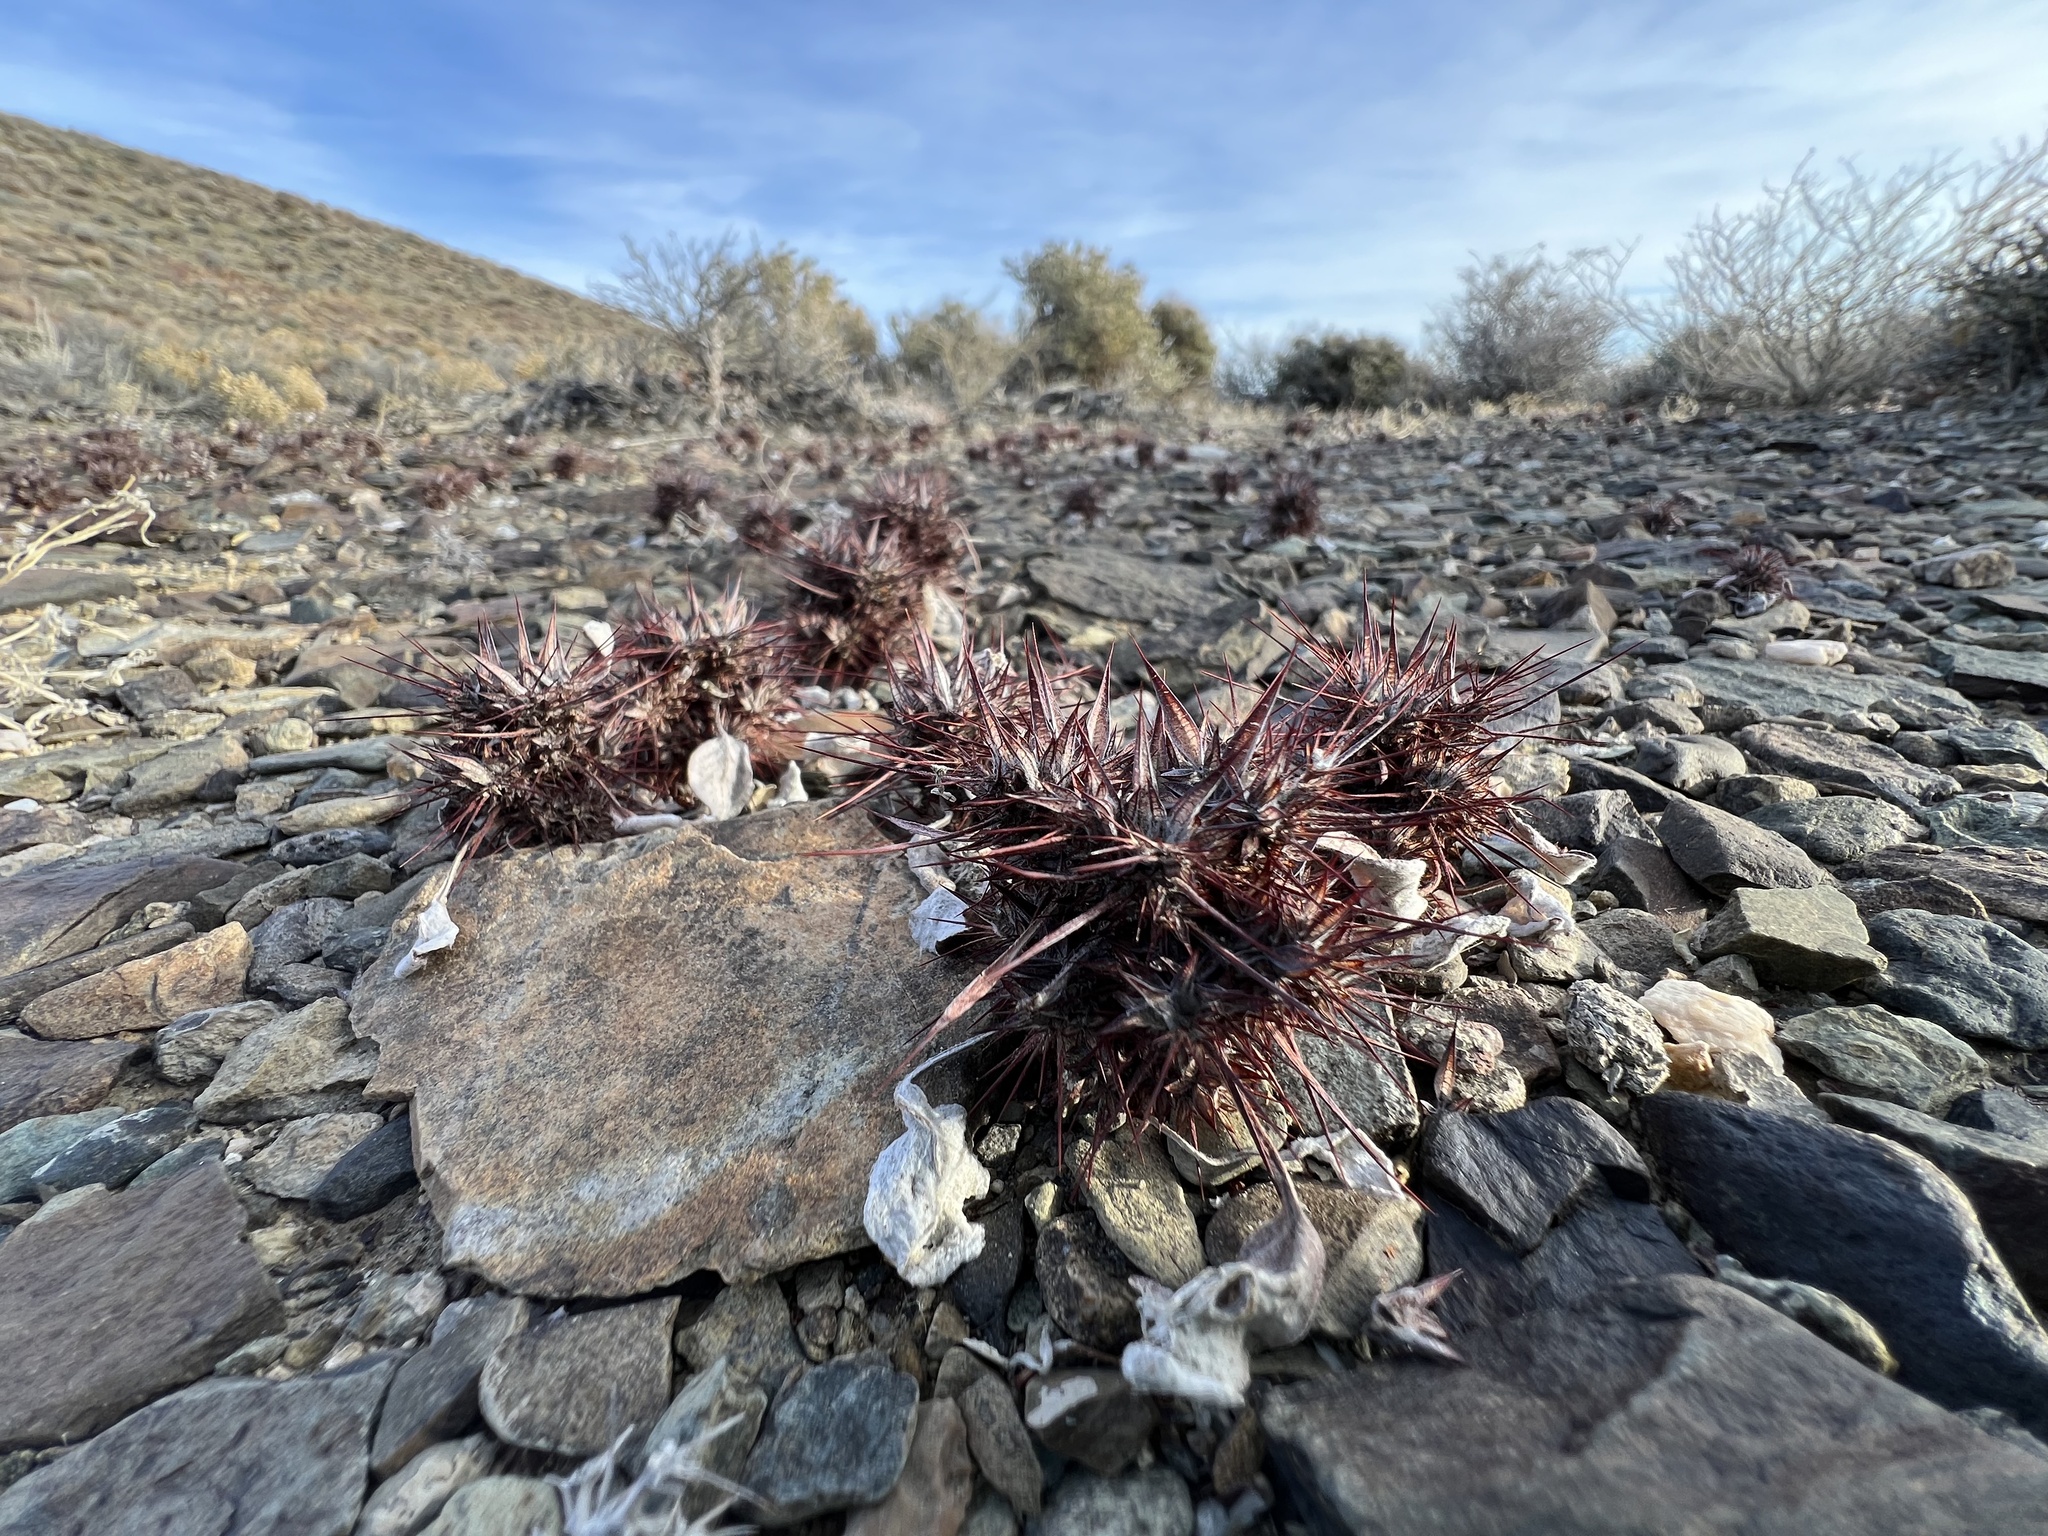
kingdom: Plantae
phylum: Tracheophyta
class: Magnoliopsida
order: Caryophyllales
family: Polygonaceae
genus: Chorizanthe
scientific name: Chorizanthe rigida
